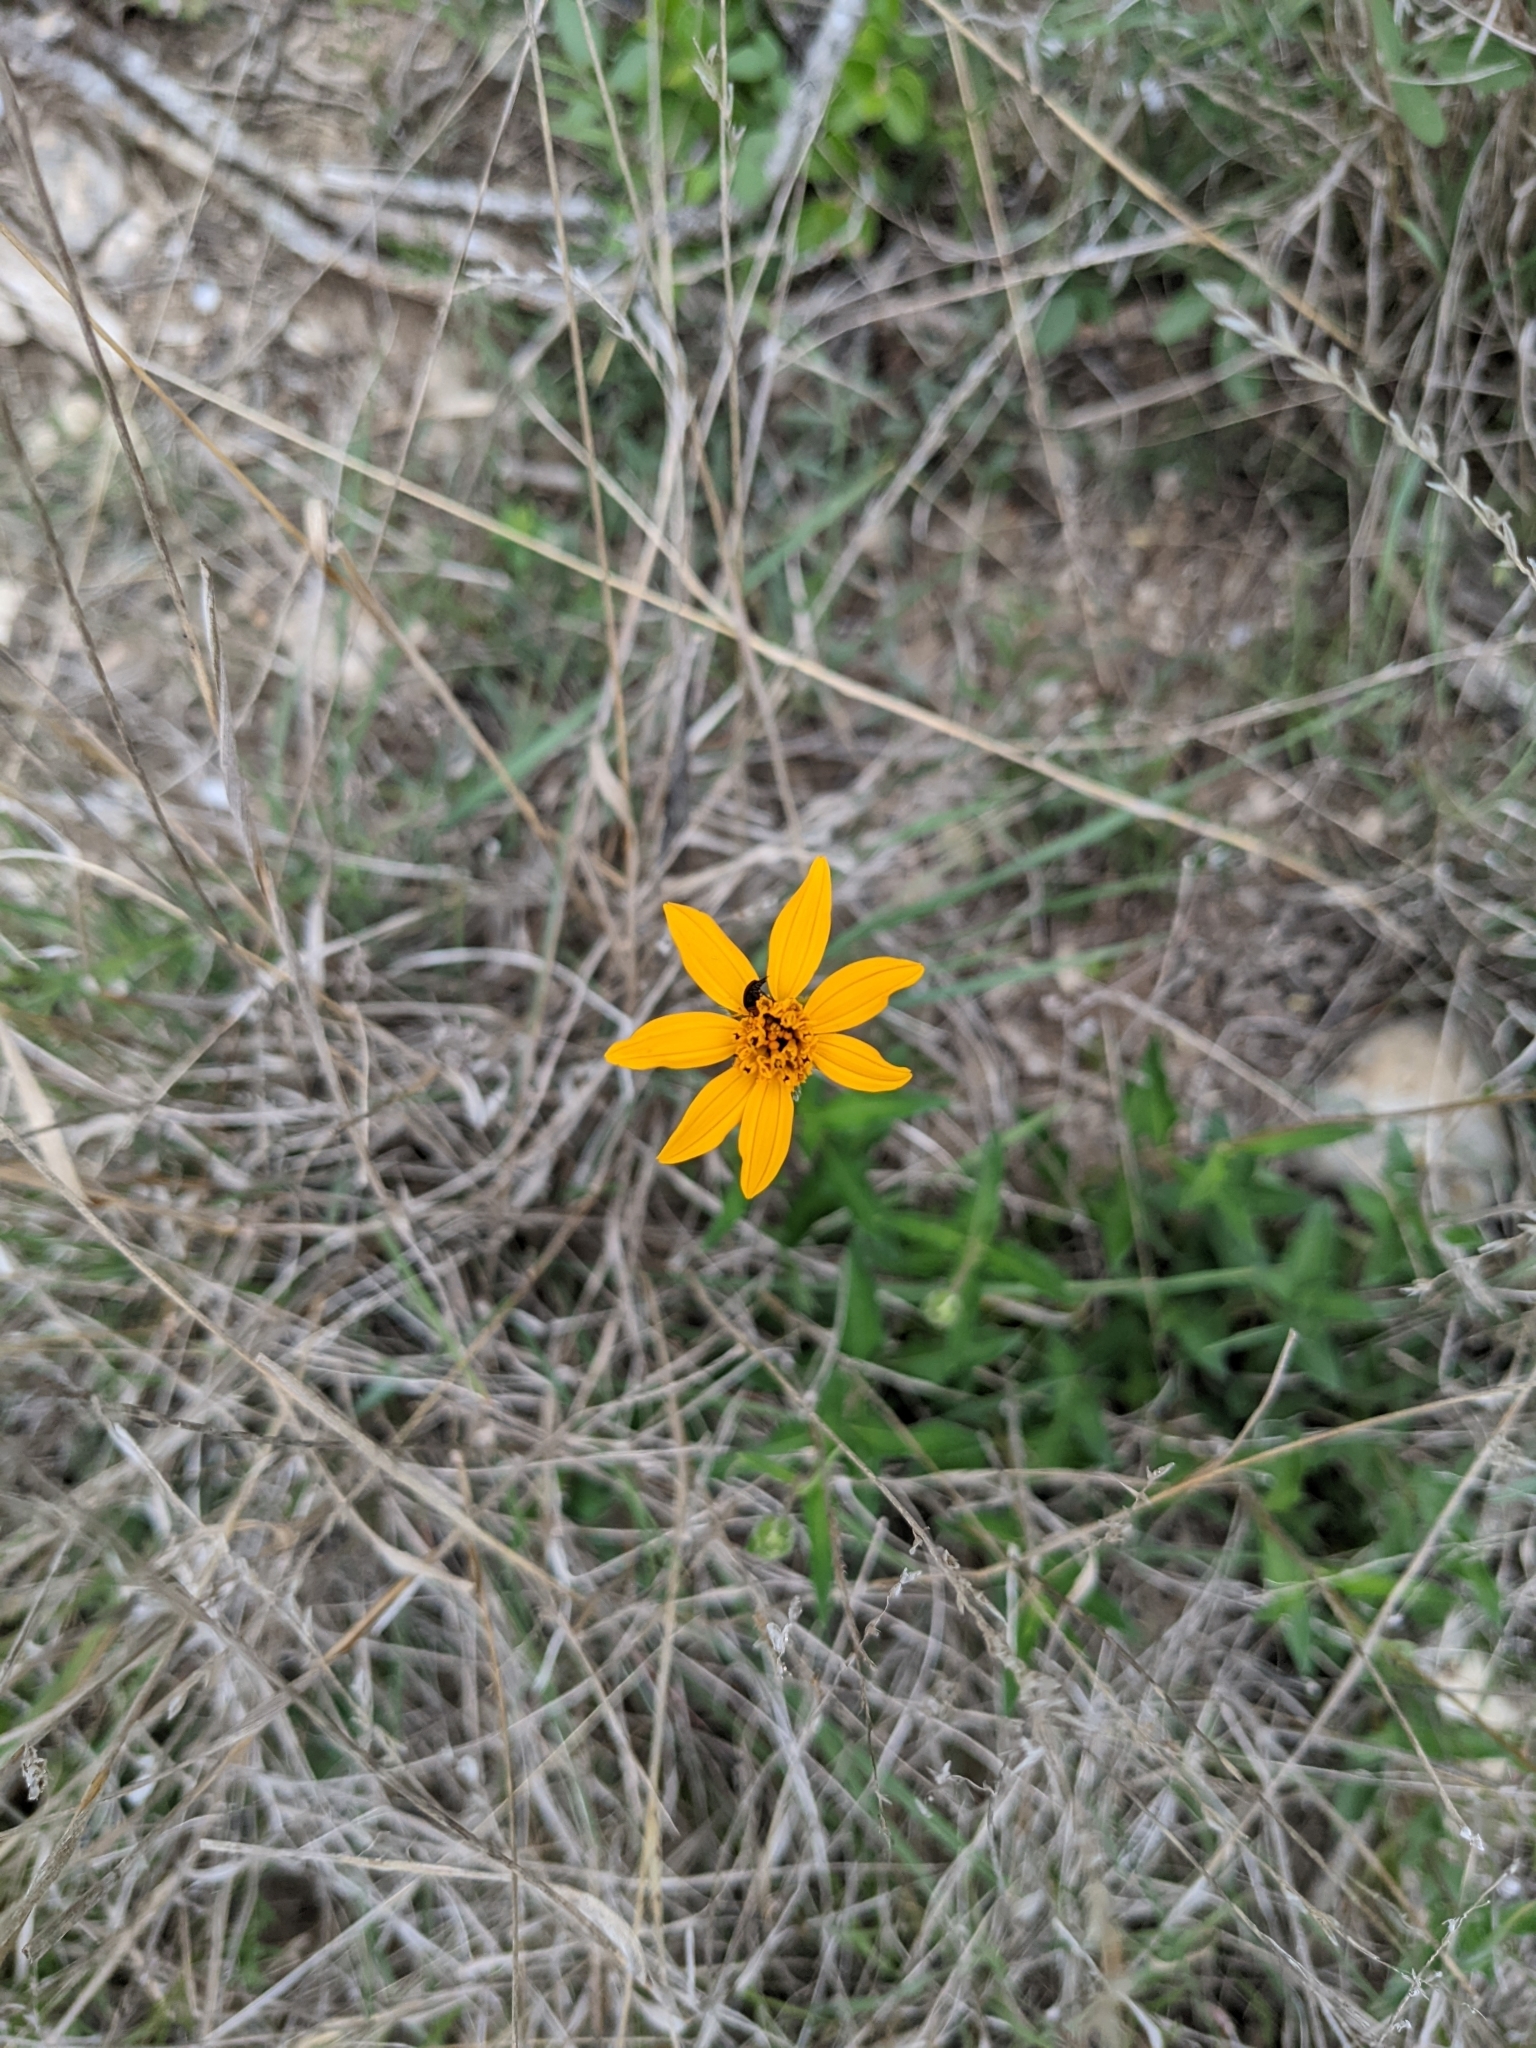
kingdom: Plantae
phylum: Tracheophyta
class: Magnoliopsida
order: Asterales
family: Asteraceae
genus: Wedelia
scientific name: Wedelia acapulcensis
